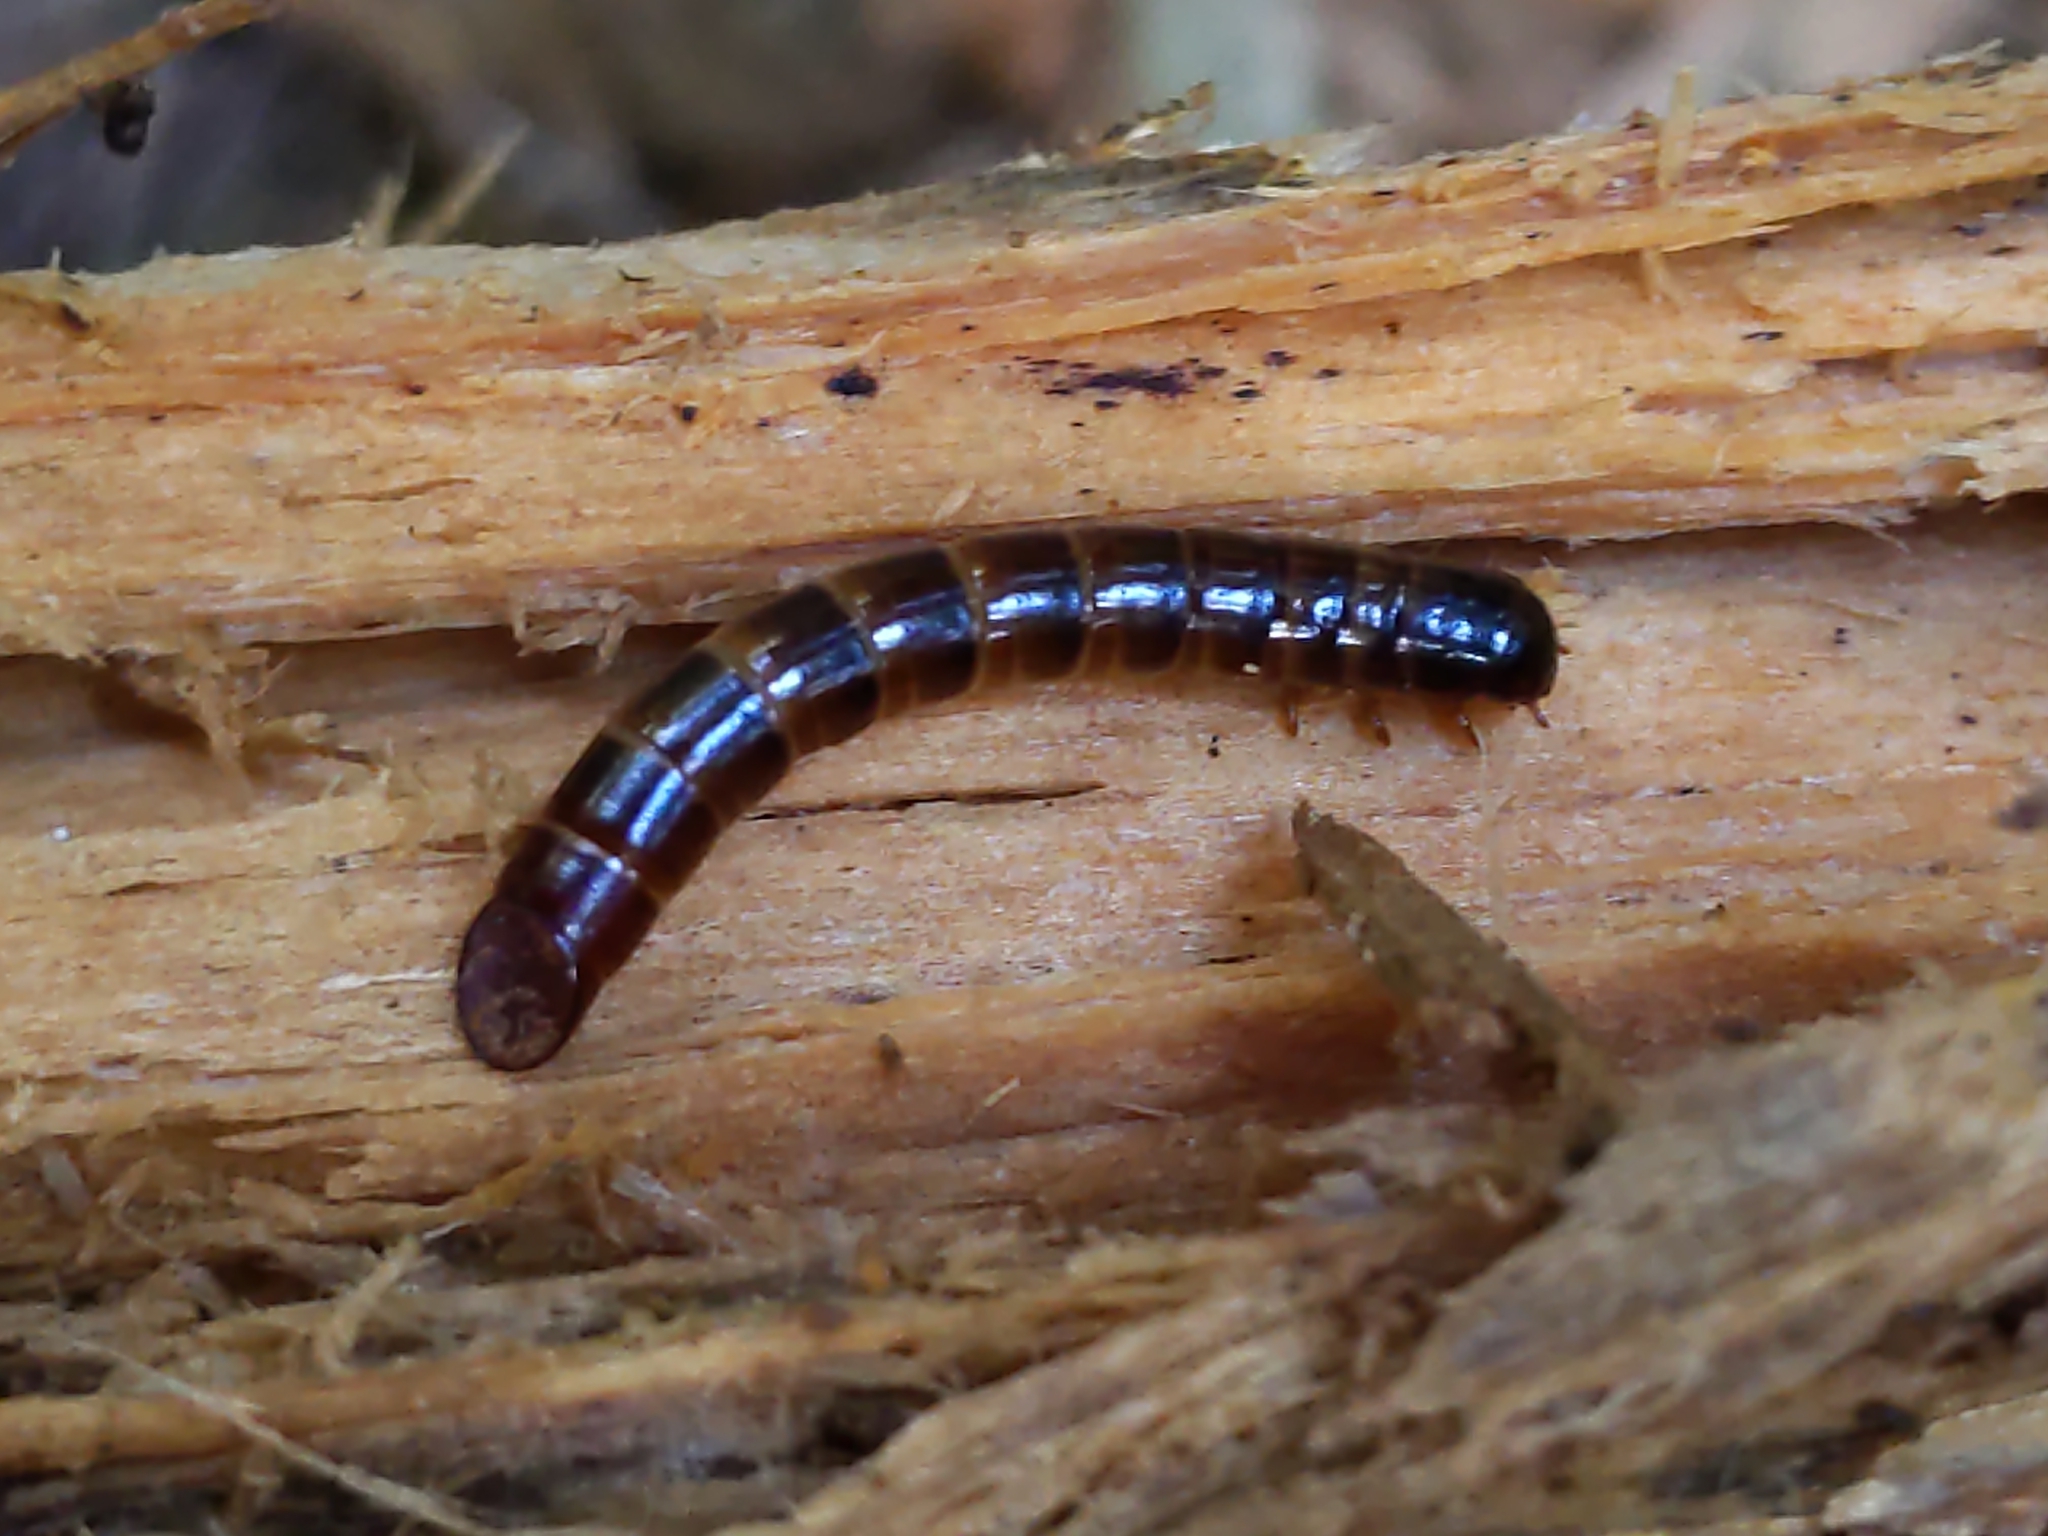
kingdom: Animalia
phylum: Arthropoda
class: Insecta
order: Coleoptera
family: Tenebrionidae
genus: Meracantha
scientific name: Meracantha contracta
